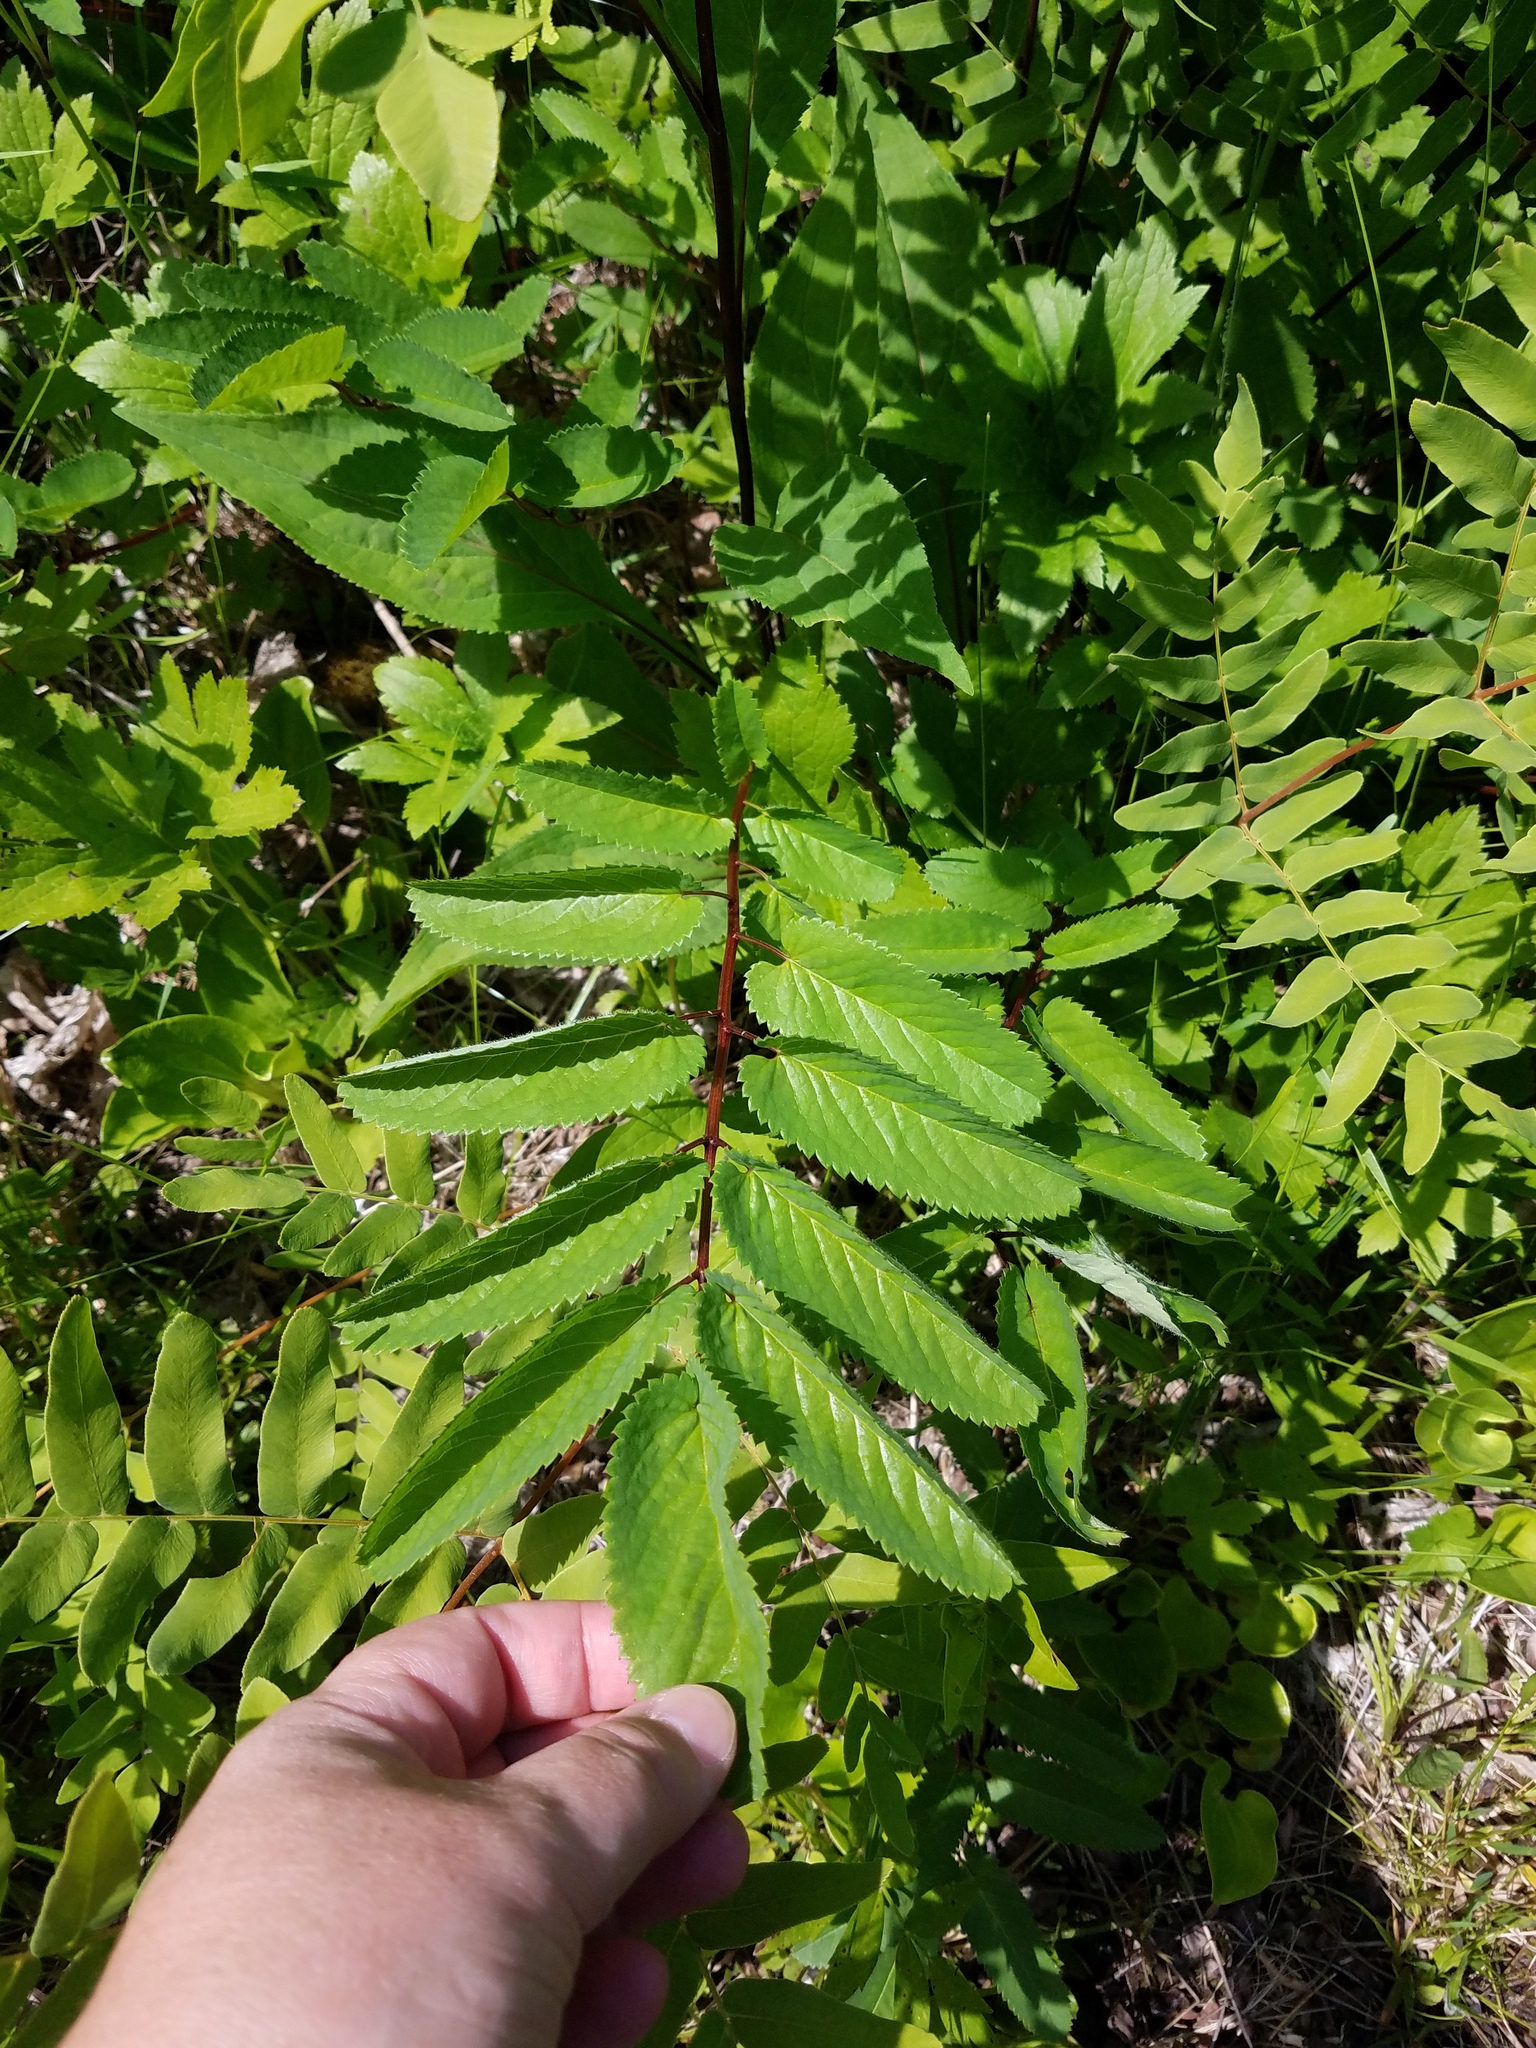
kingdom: Plantae
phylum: Tracheophyta
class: Magnoliopsida
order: Rosales
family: Rosaceae
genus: Sanguisorba
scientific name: Sanguisorba canadensis
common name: White burnet
